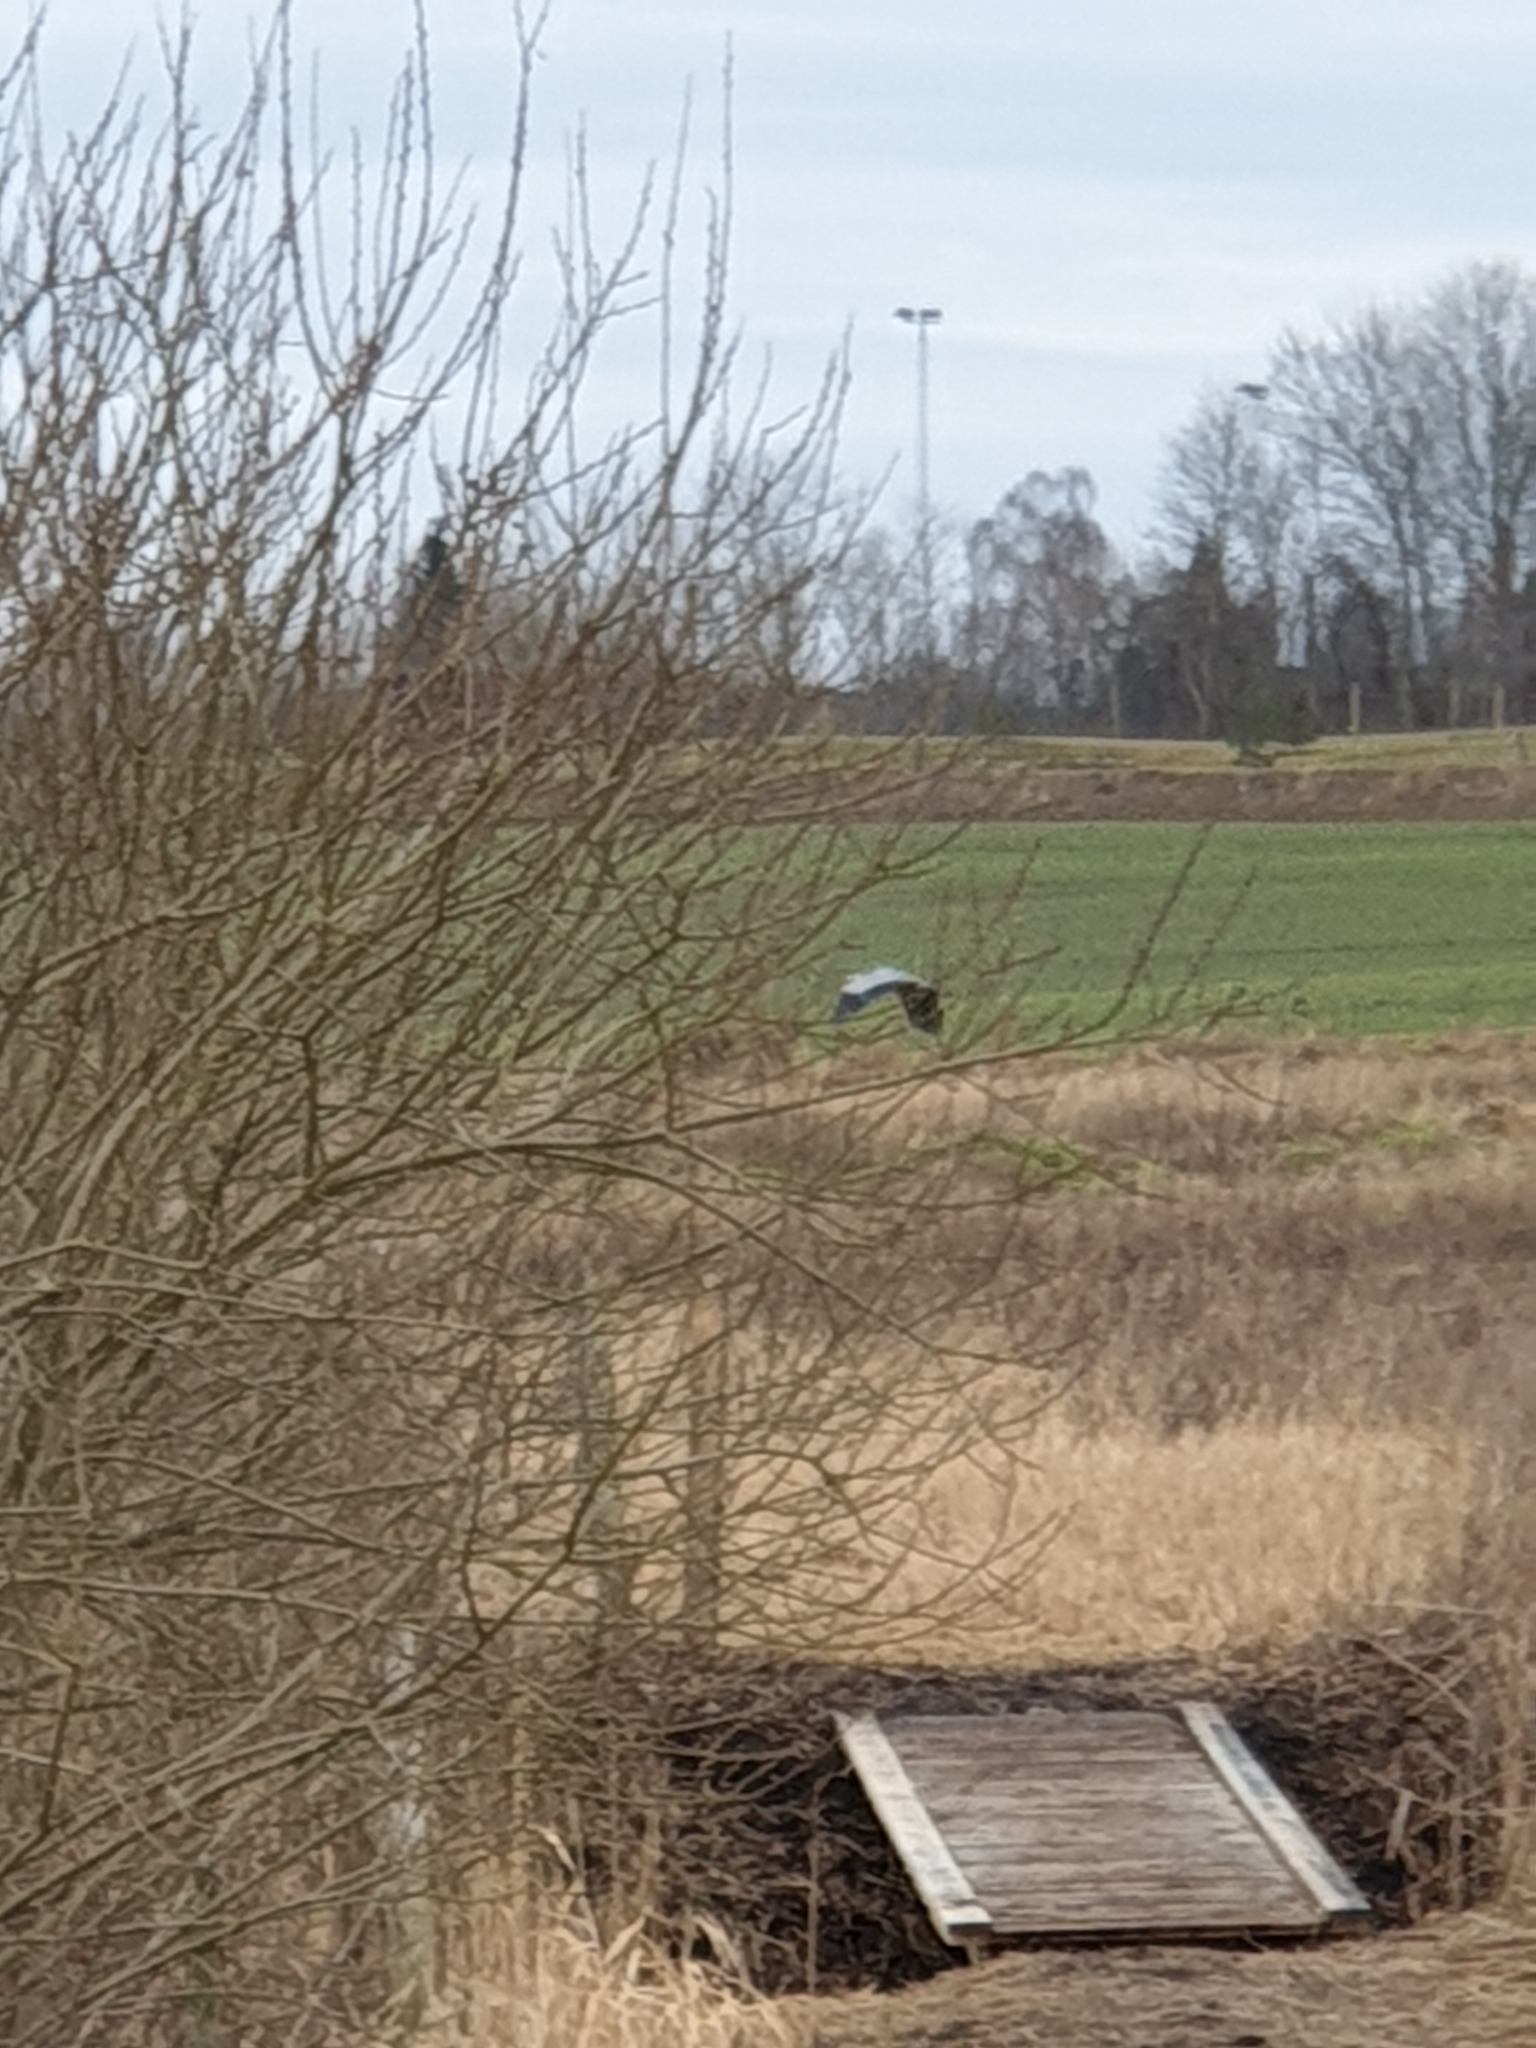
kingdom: Animalia
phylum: Chordata
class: Aves
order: Pelecaniformes
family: Ardeidae
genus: Ardea
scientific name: Ardea cinerea
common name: Grey heron
